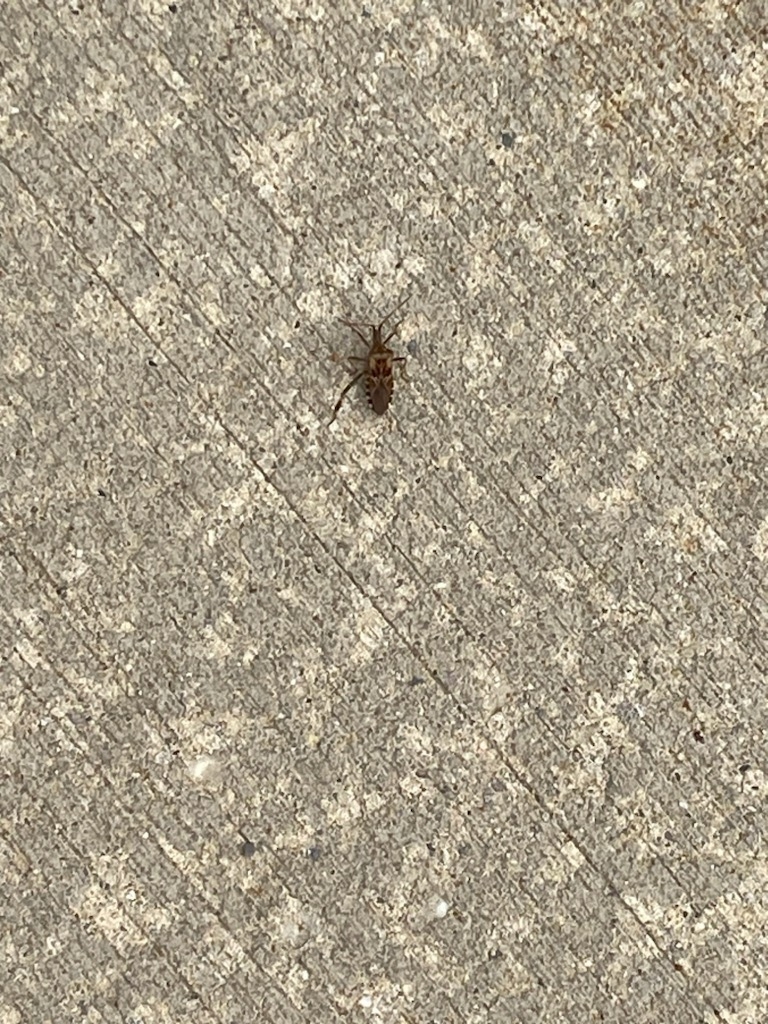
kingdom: Animalia
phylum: Arthropoda
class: Insecta
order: Hemiptera
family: Coreidae
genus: Leptoglossus
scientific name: Leptoglossus occidentalis
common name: Western conifer-seed bug
